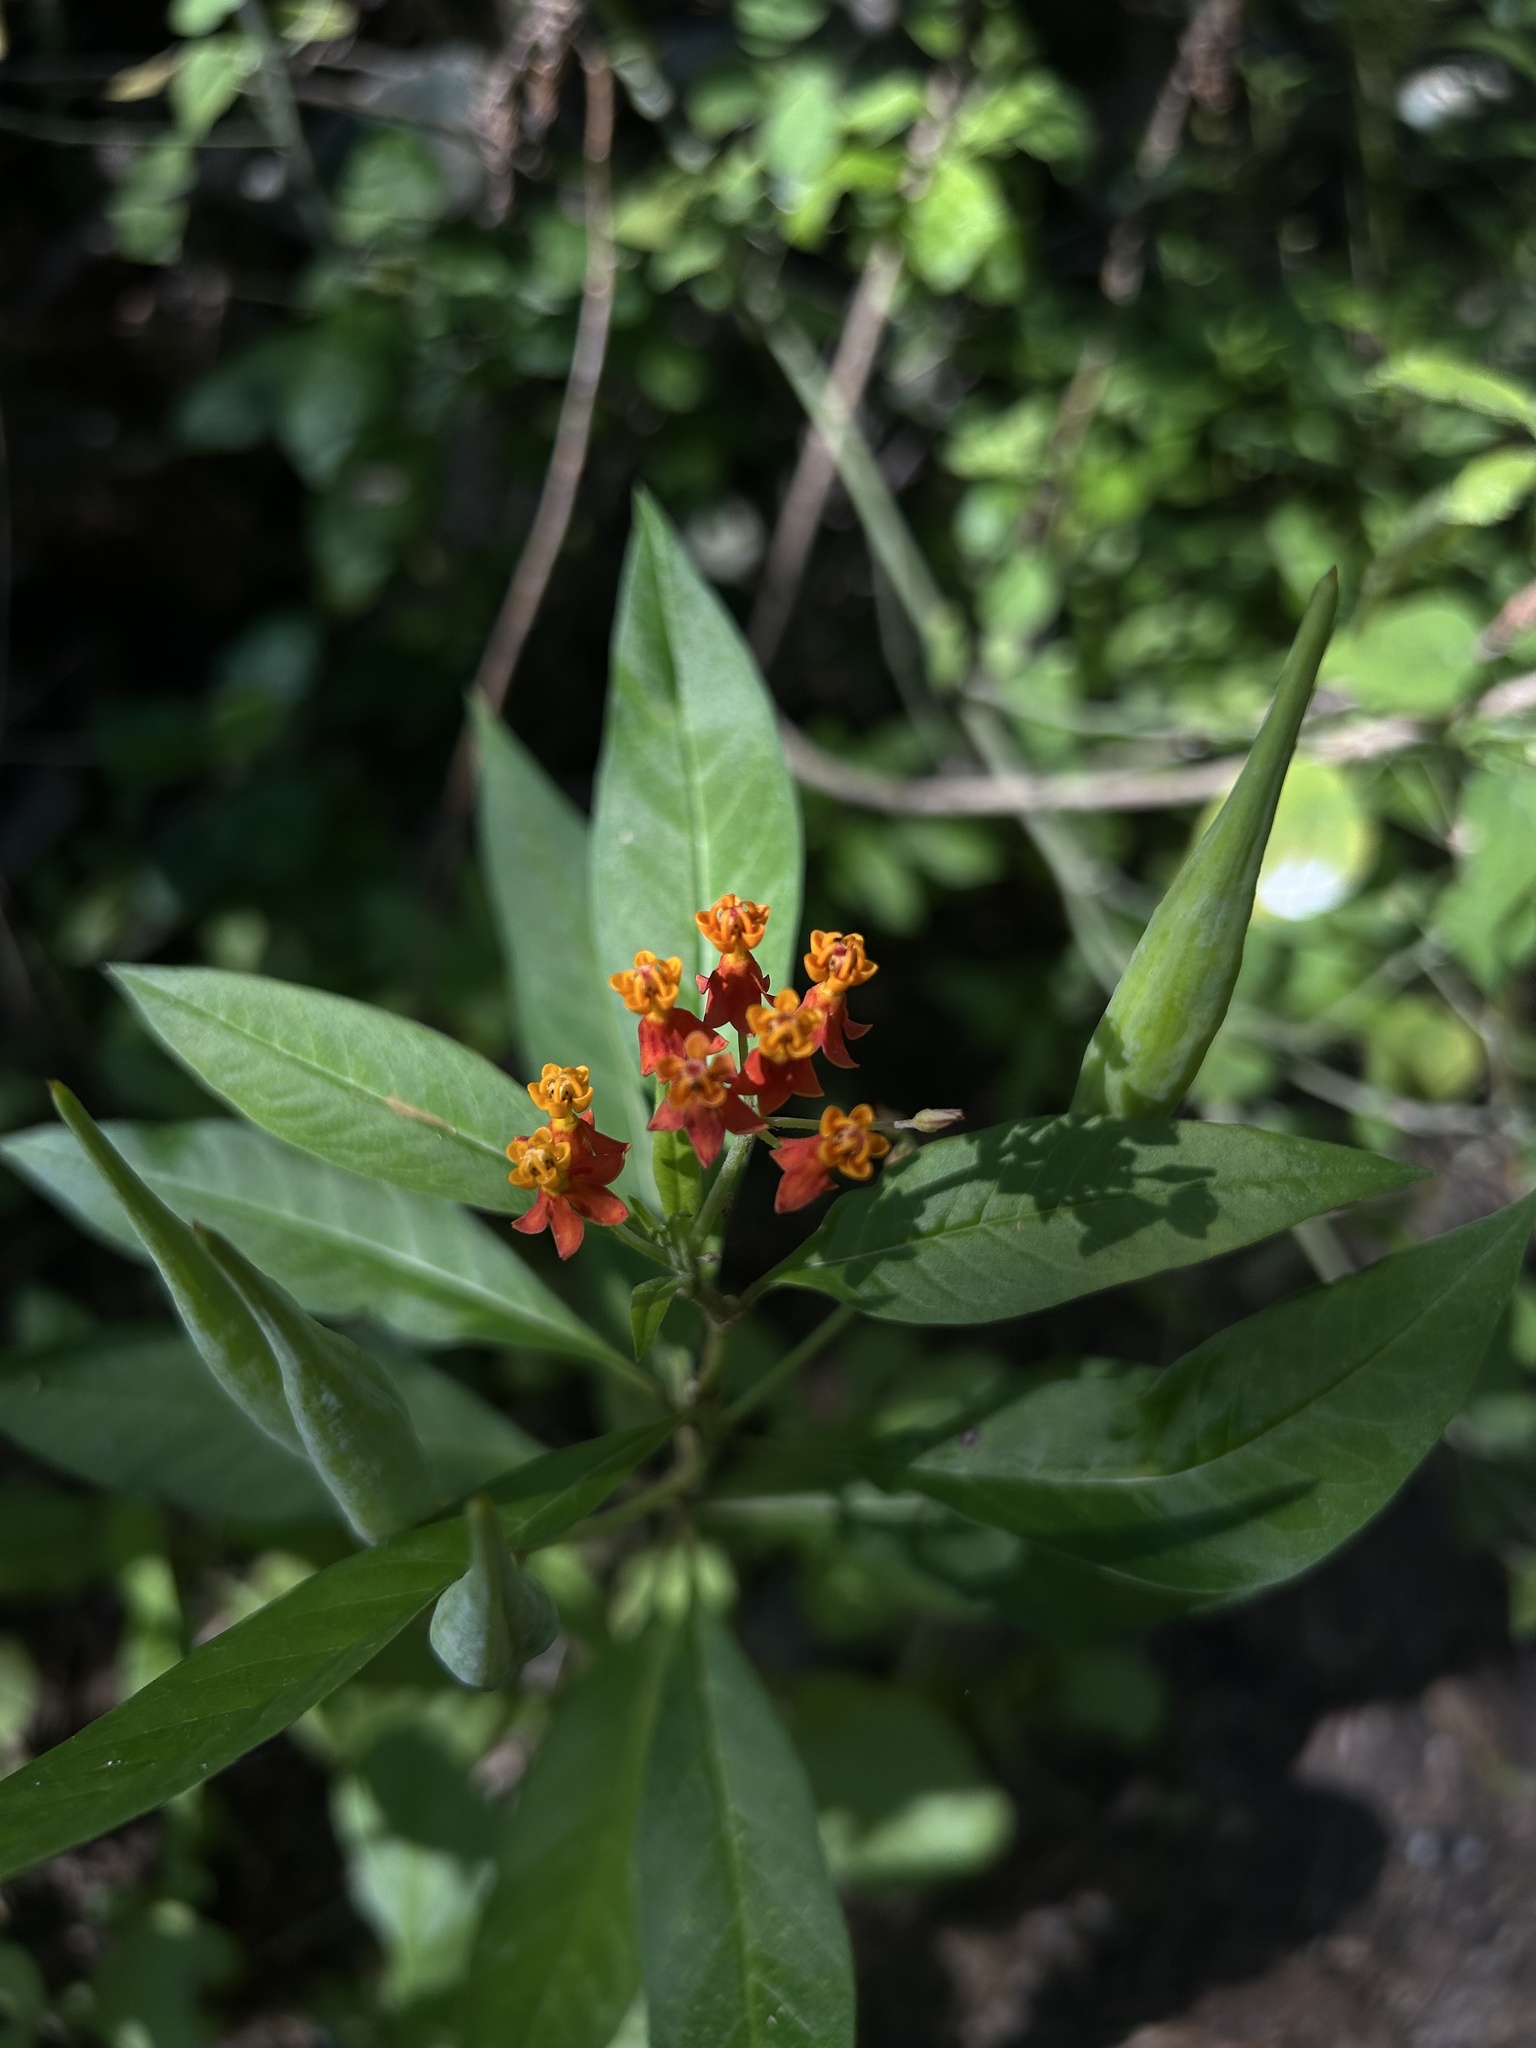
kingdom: Plantae
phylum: Tracheophyta
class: Magnoliopsida
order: Gentianales
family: Apocynaceae
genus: Asclepias
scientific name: Asclepias curassavica
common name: Bloodflower
